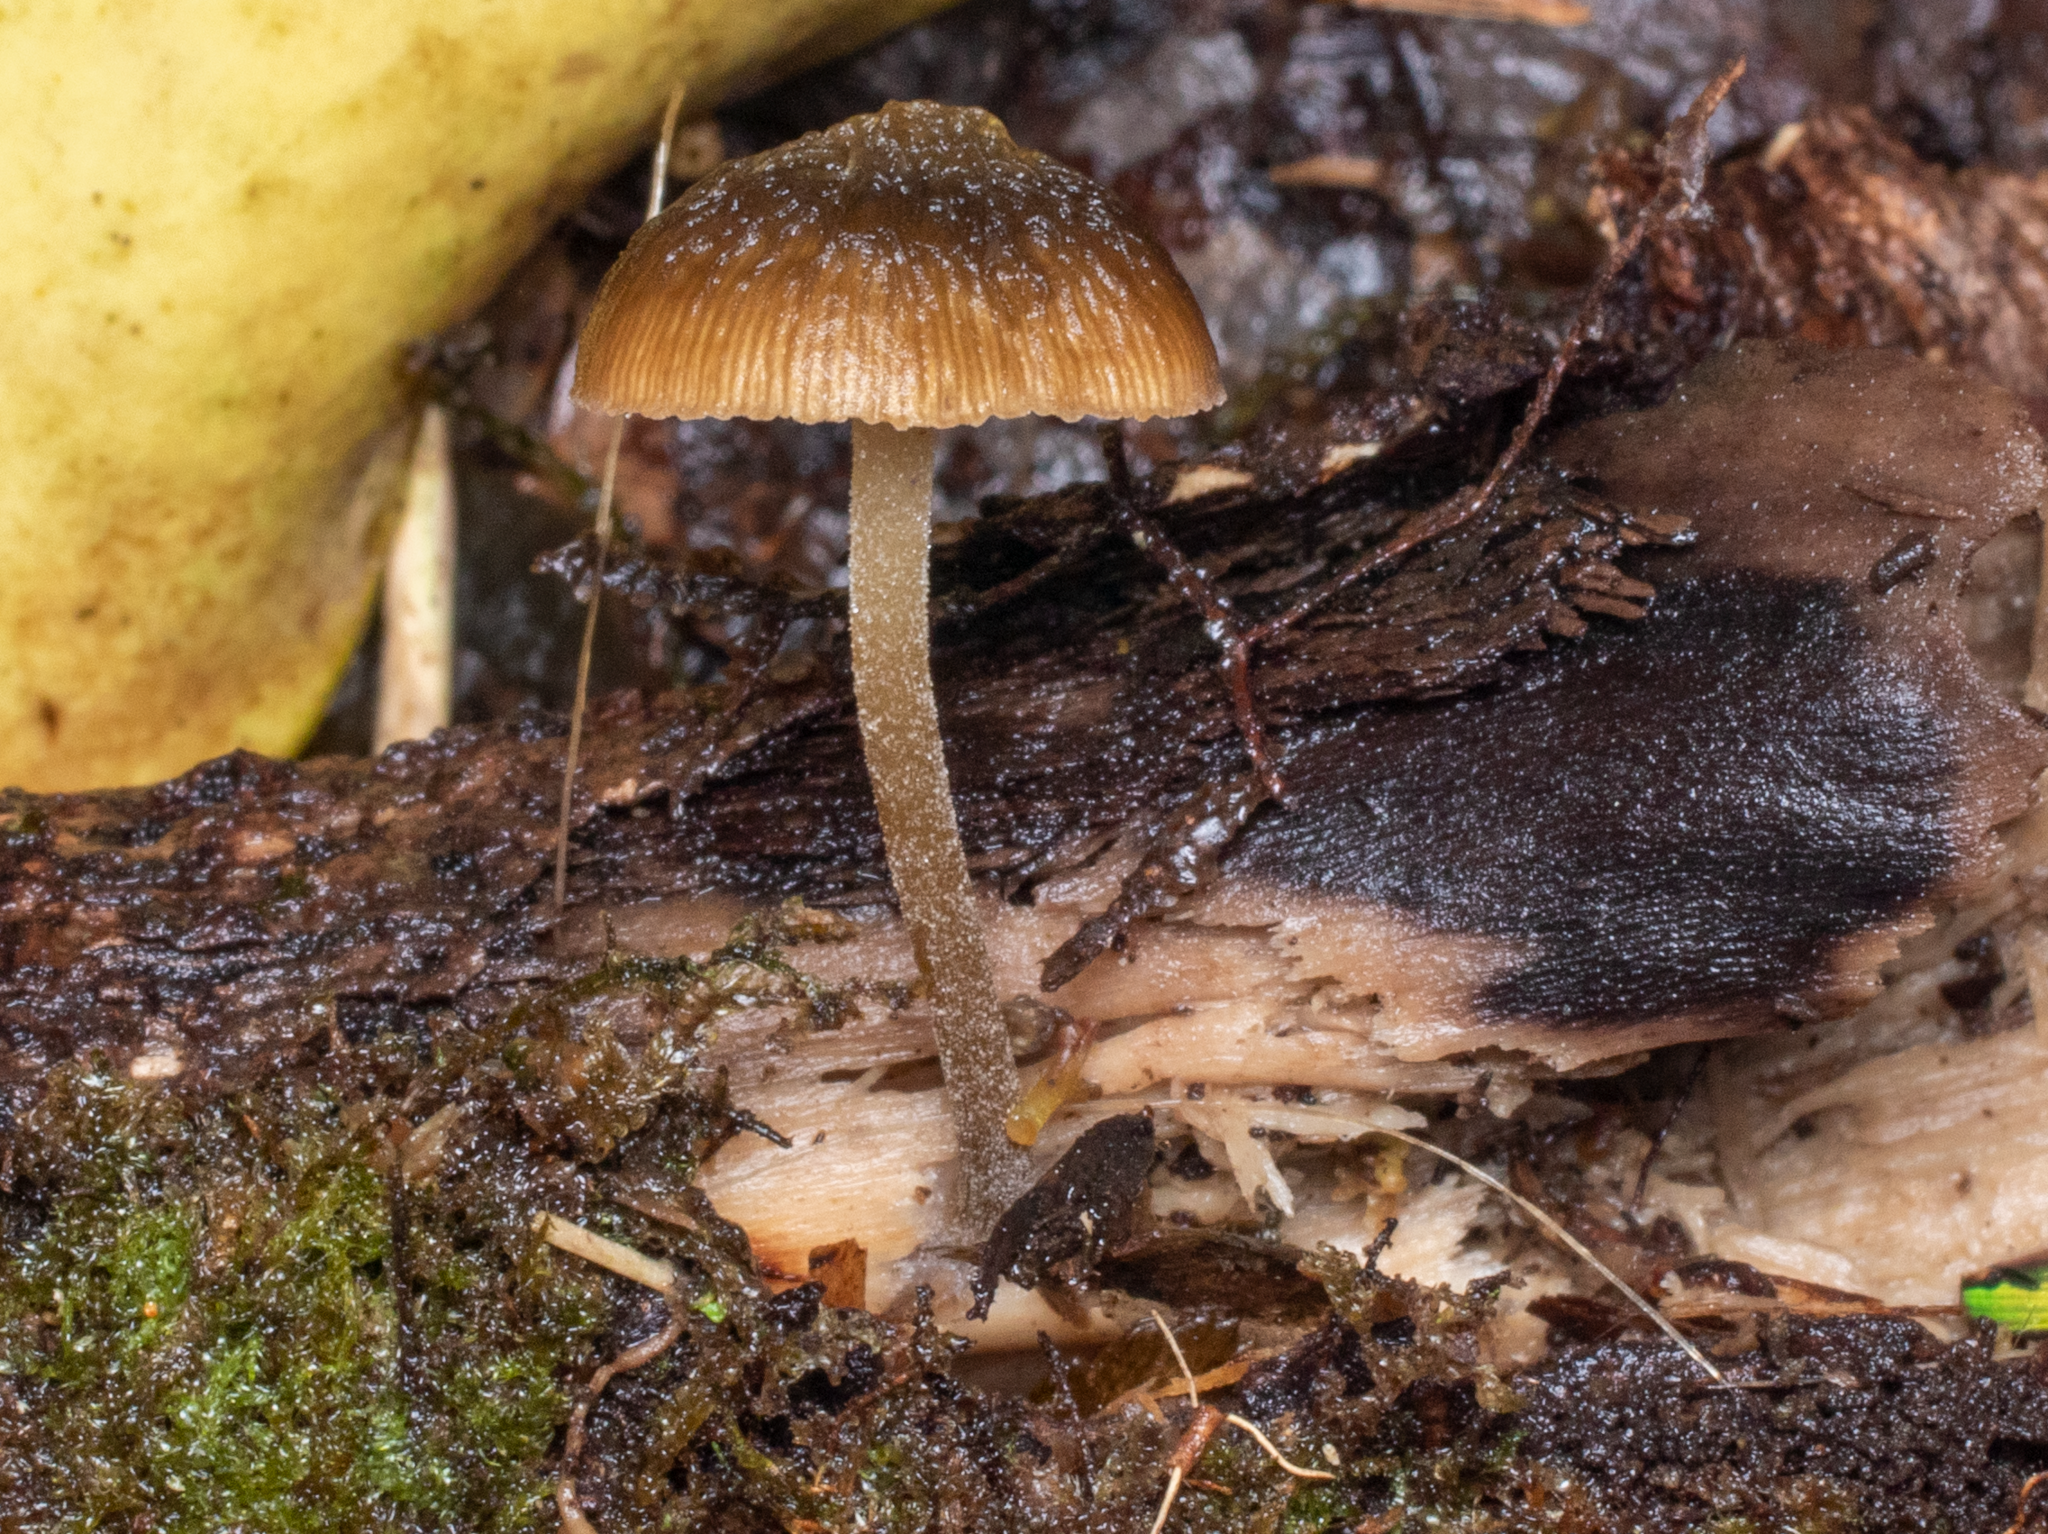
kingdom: Fungi
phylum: Basidiomycota
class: Agaricomycetes
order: Agaricales
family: Crepidotaceae
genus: Simocybe
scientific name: Simocybe phlebophora
